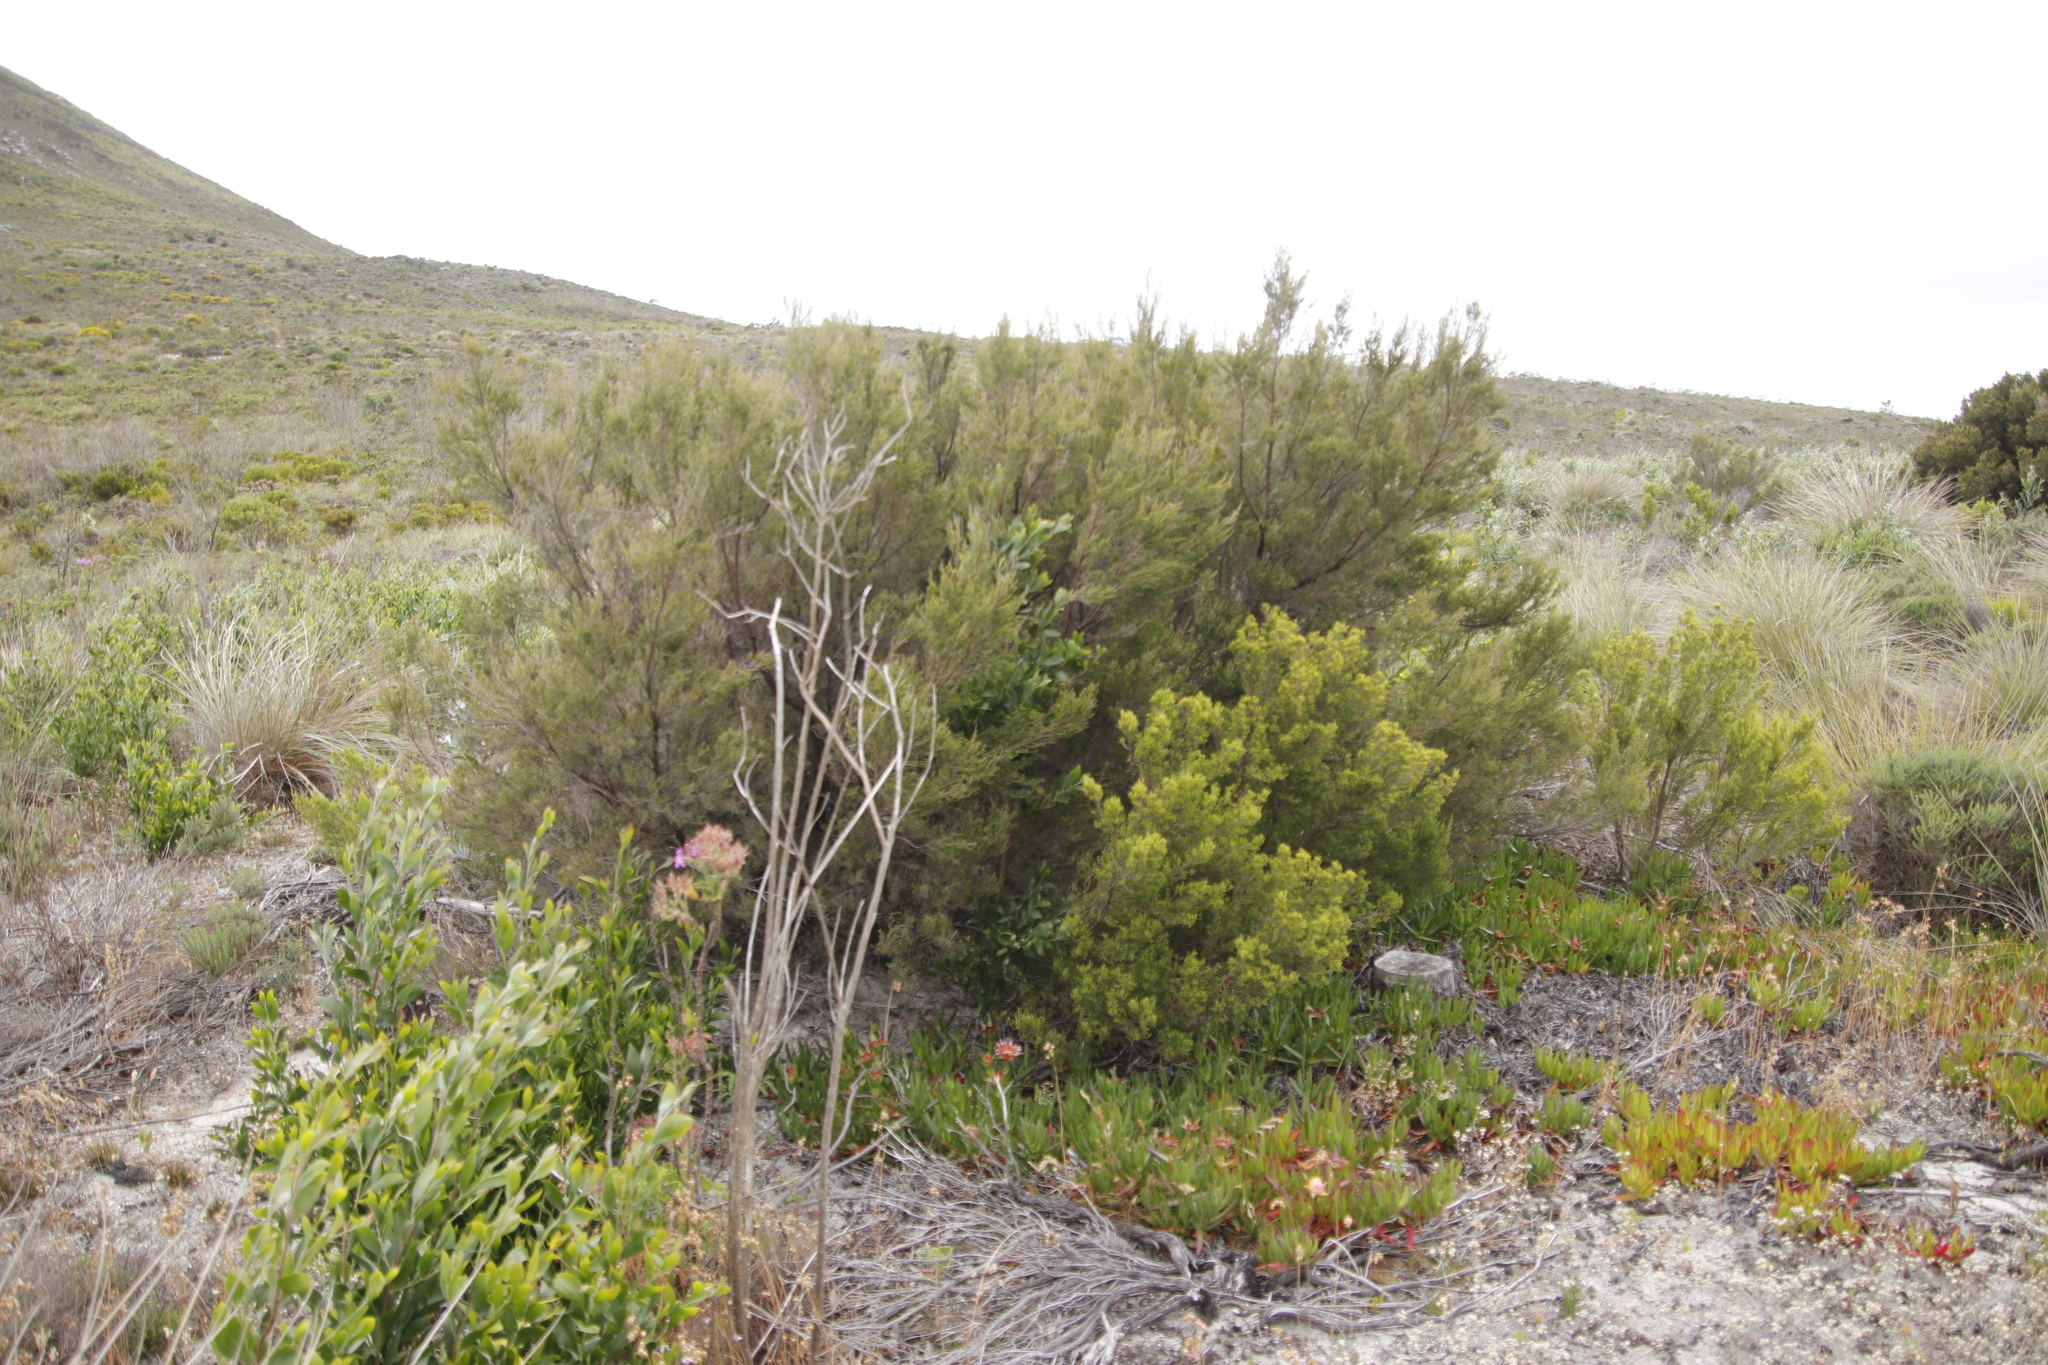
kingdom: Plantae
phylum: Tracheophyta
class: Magnoliopsida
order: Ericales
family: Ericaceae
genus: Erica
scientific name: Erica tristis
